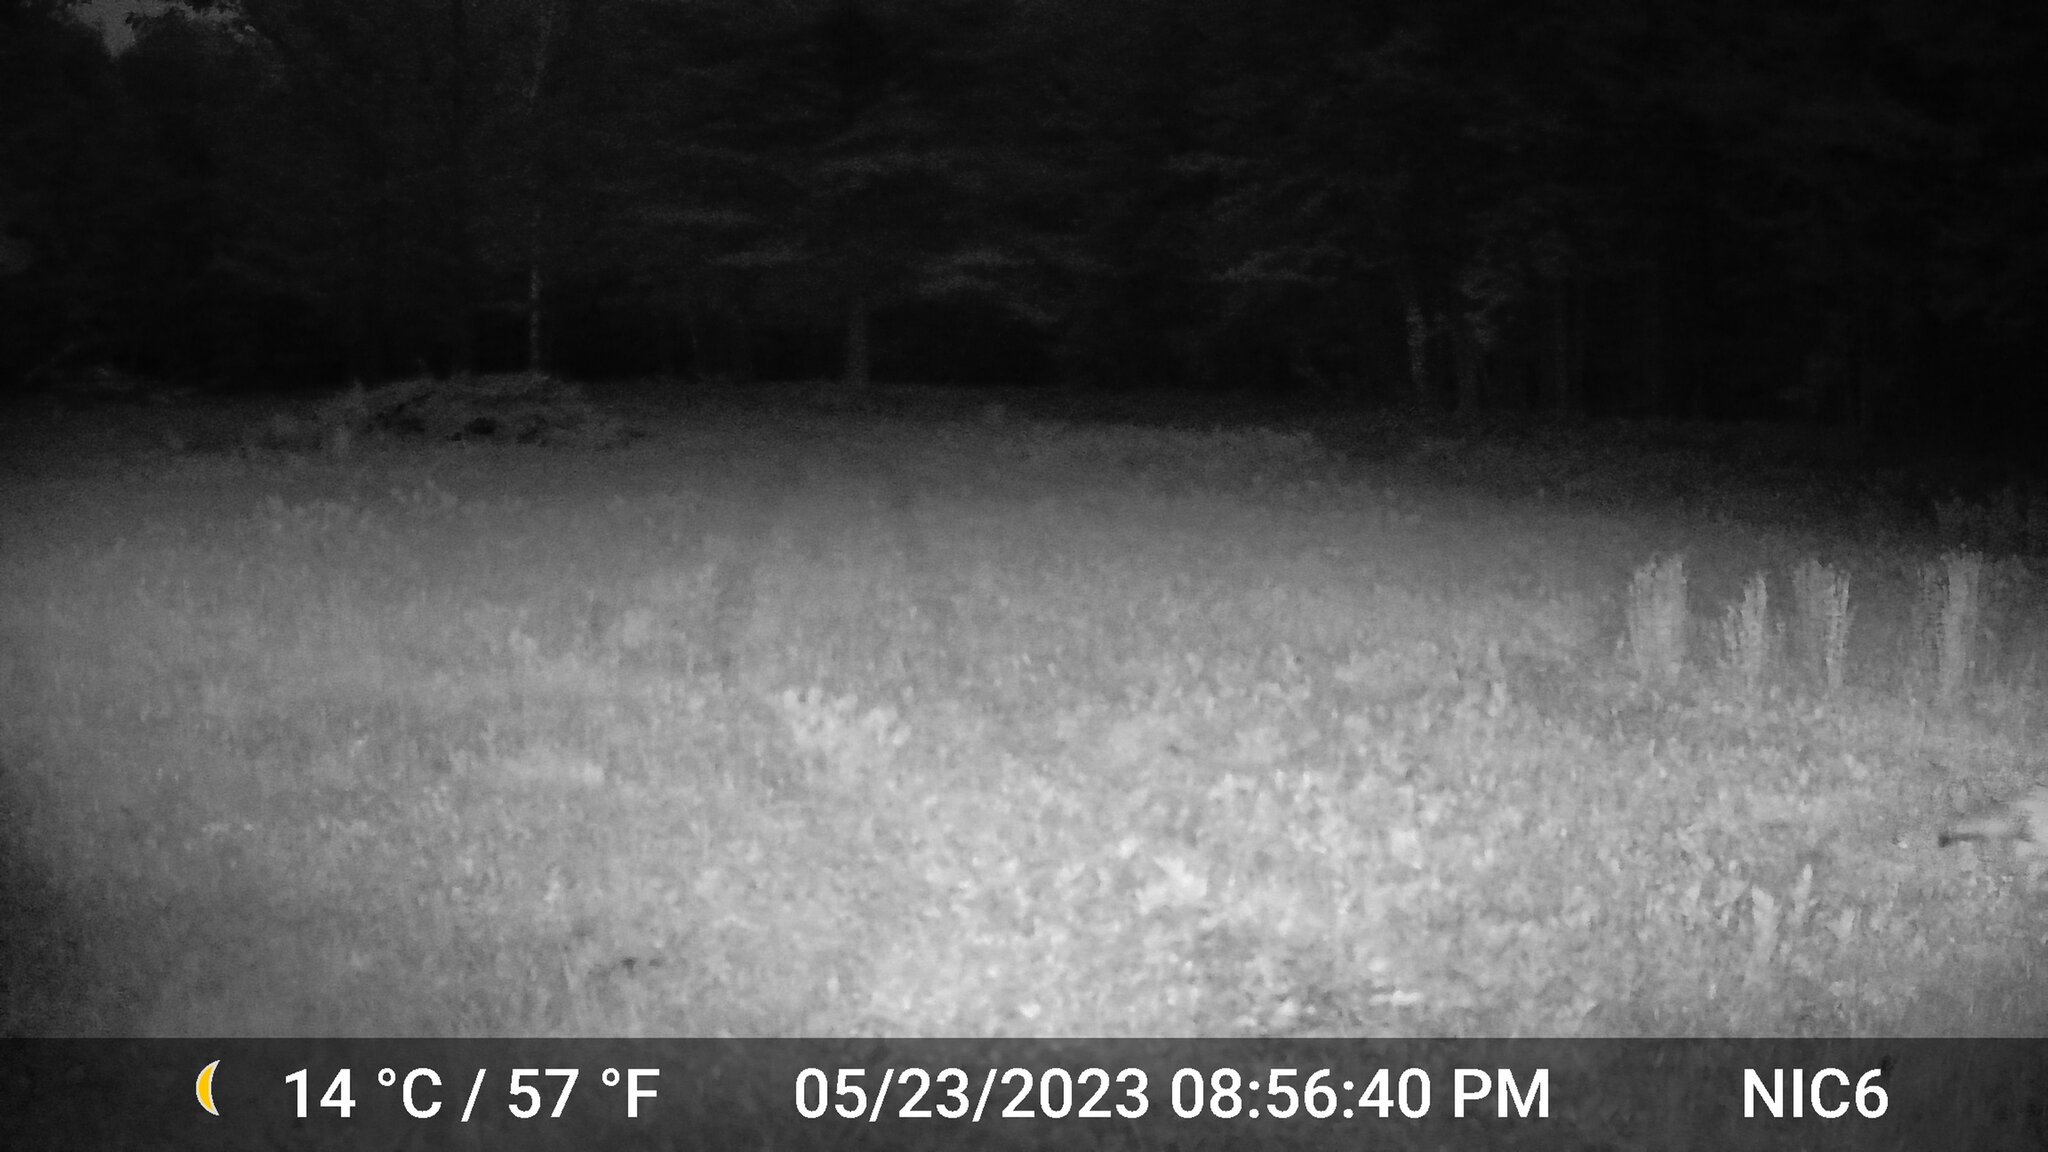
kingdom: Animalia
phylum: Chordata
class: Mammalia
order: Carnivora
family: Canidae
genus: Canis
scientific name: Canis latrans
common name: Coyote
